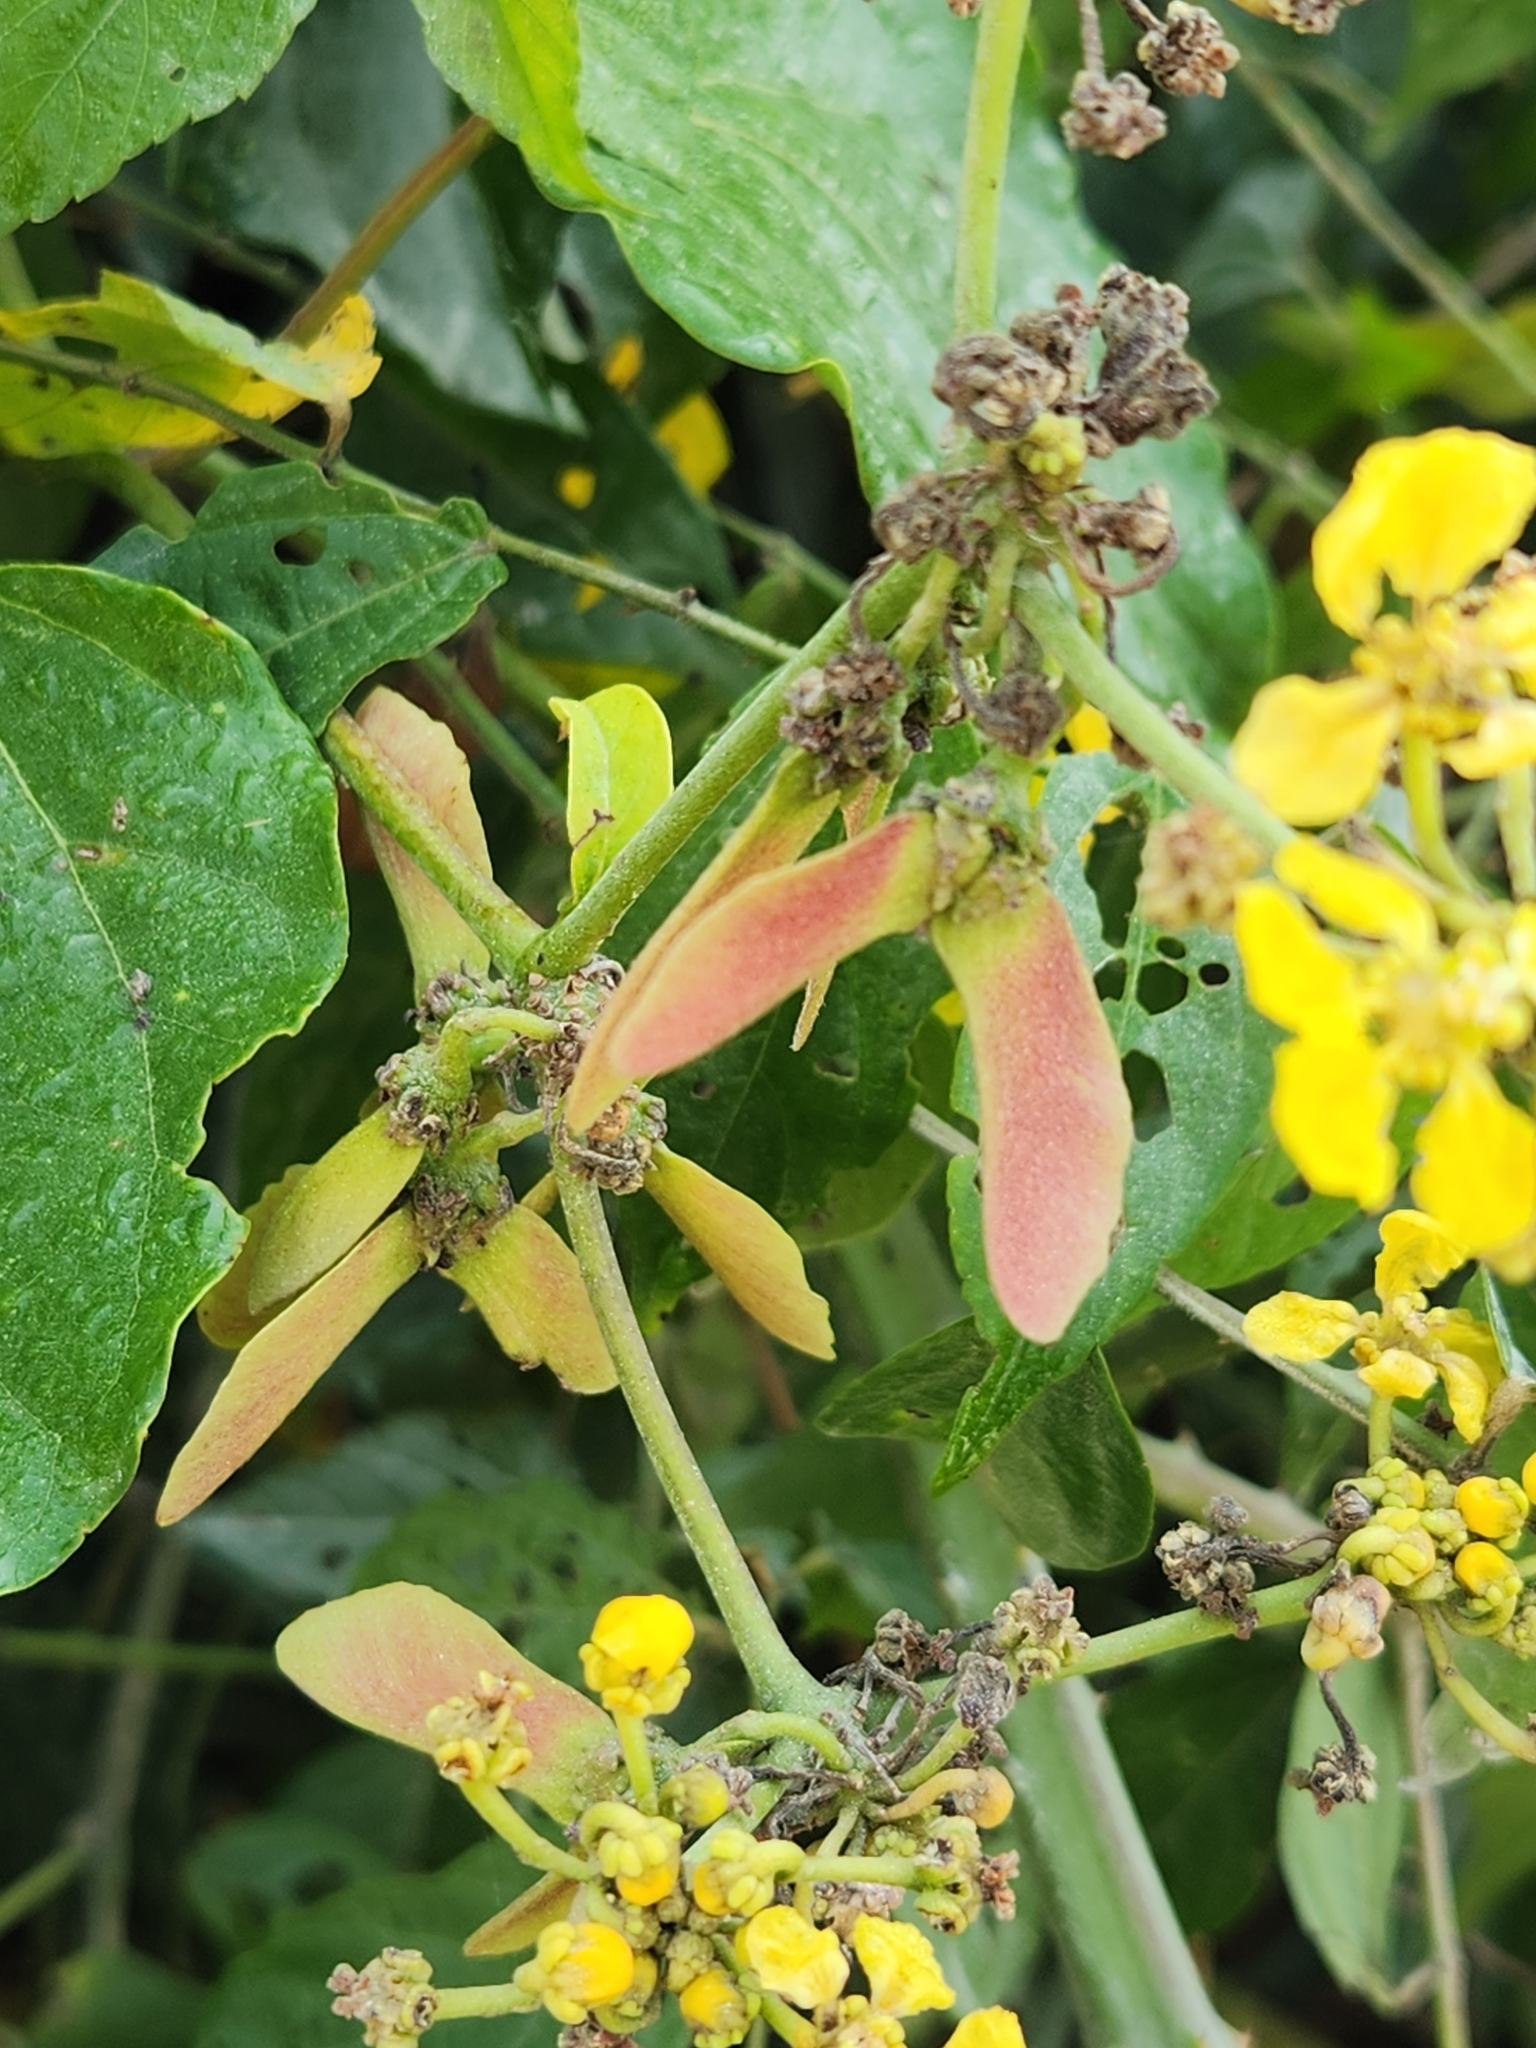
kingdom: Plantae
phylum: Tracheophyta
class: Magnoliopsida
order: Malpighiales
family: Malpighiaceae
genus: Stigmaphyllon
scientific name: Stigmaphyllon lindenianum
